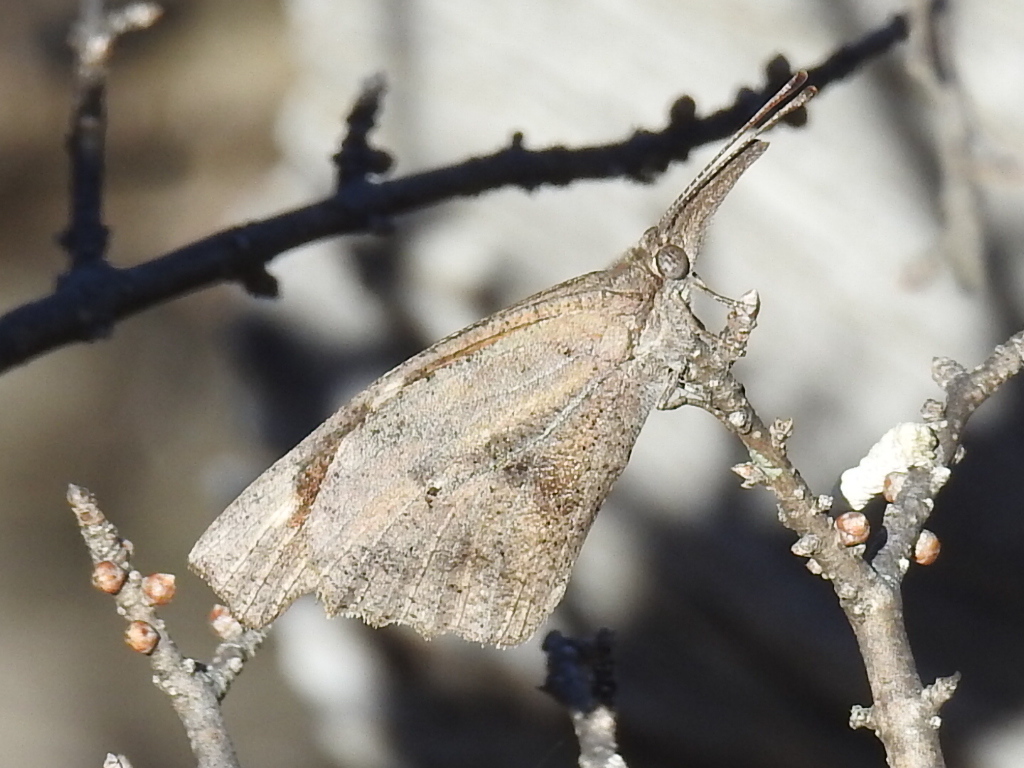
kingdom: Animalia
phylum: Arthropoda
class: Insecta
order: Lepidoptera
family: Nymphalidae
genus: Libytheana
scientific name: Libytheana carinenta
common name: American snout
